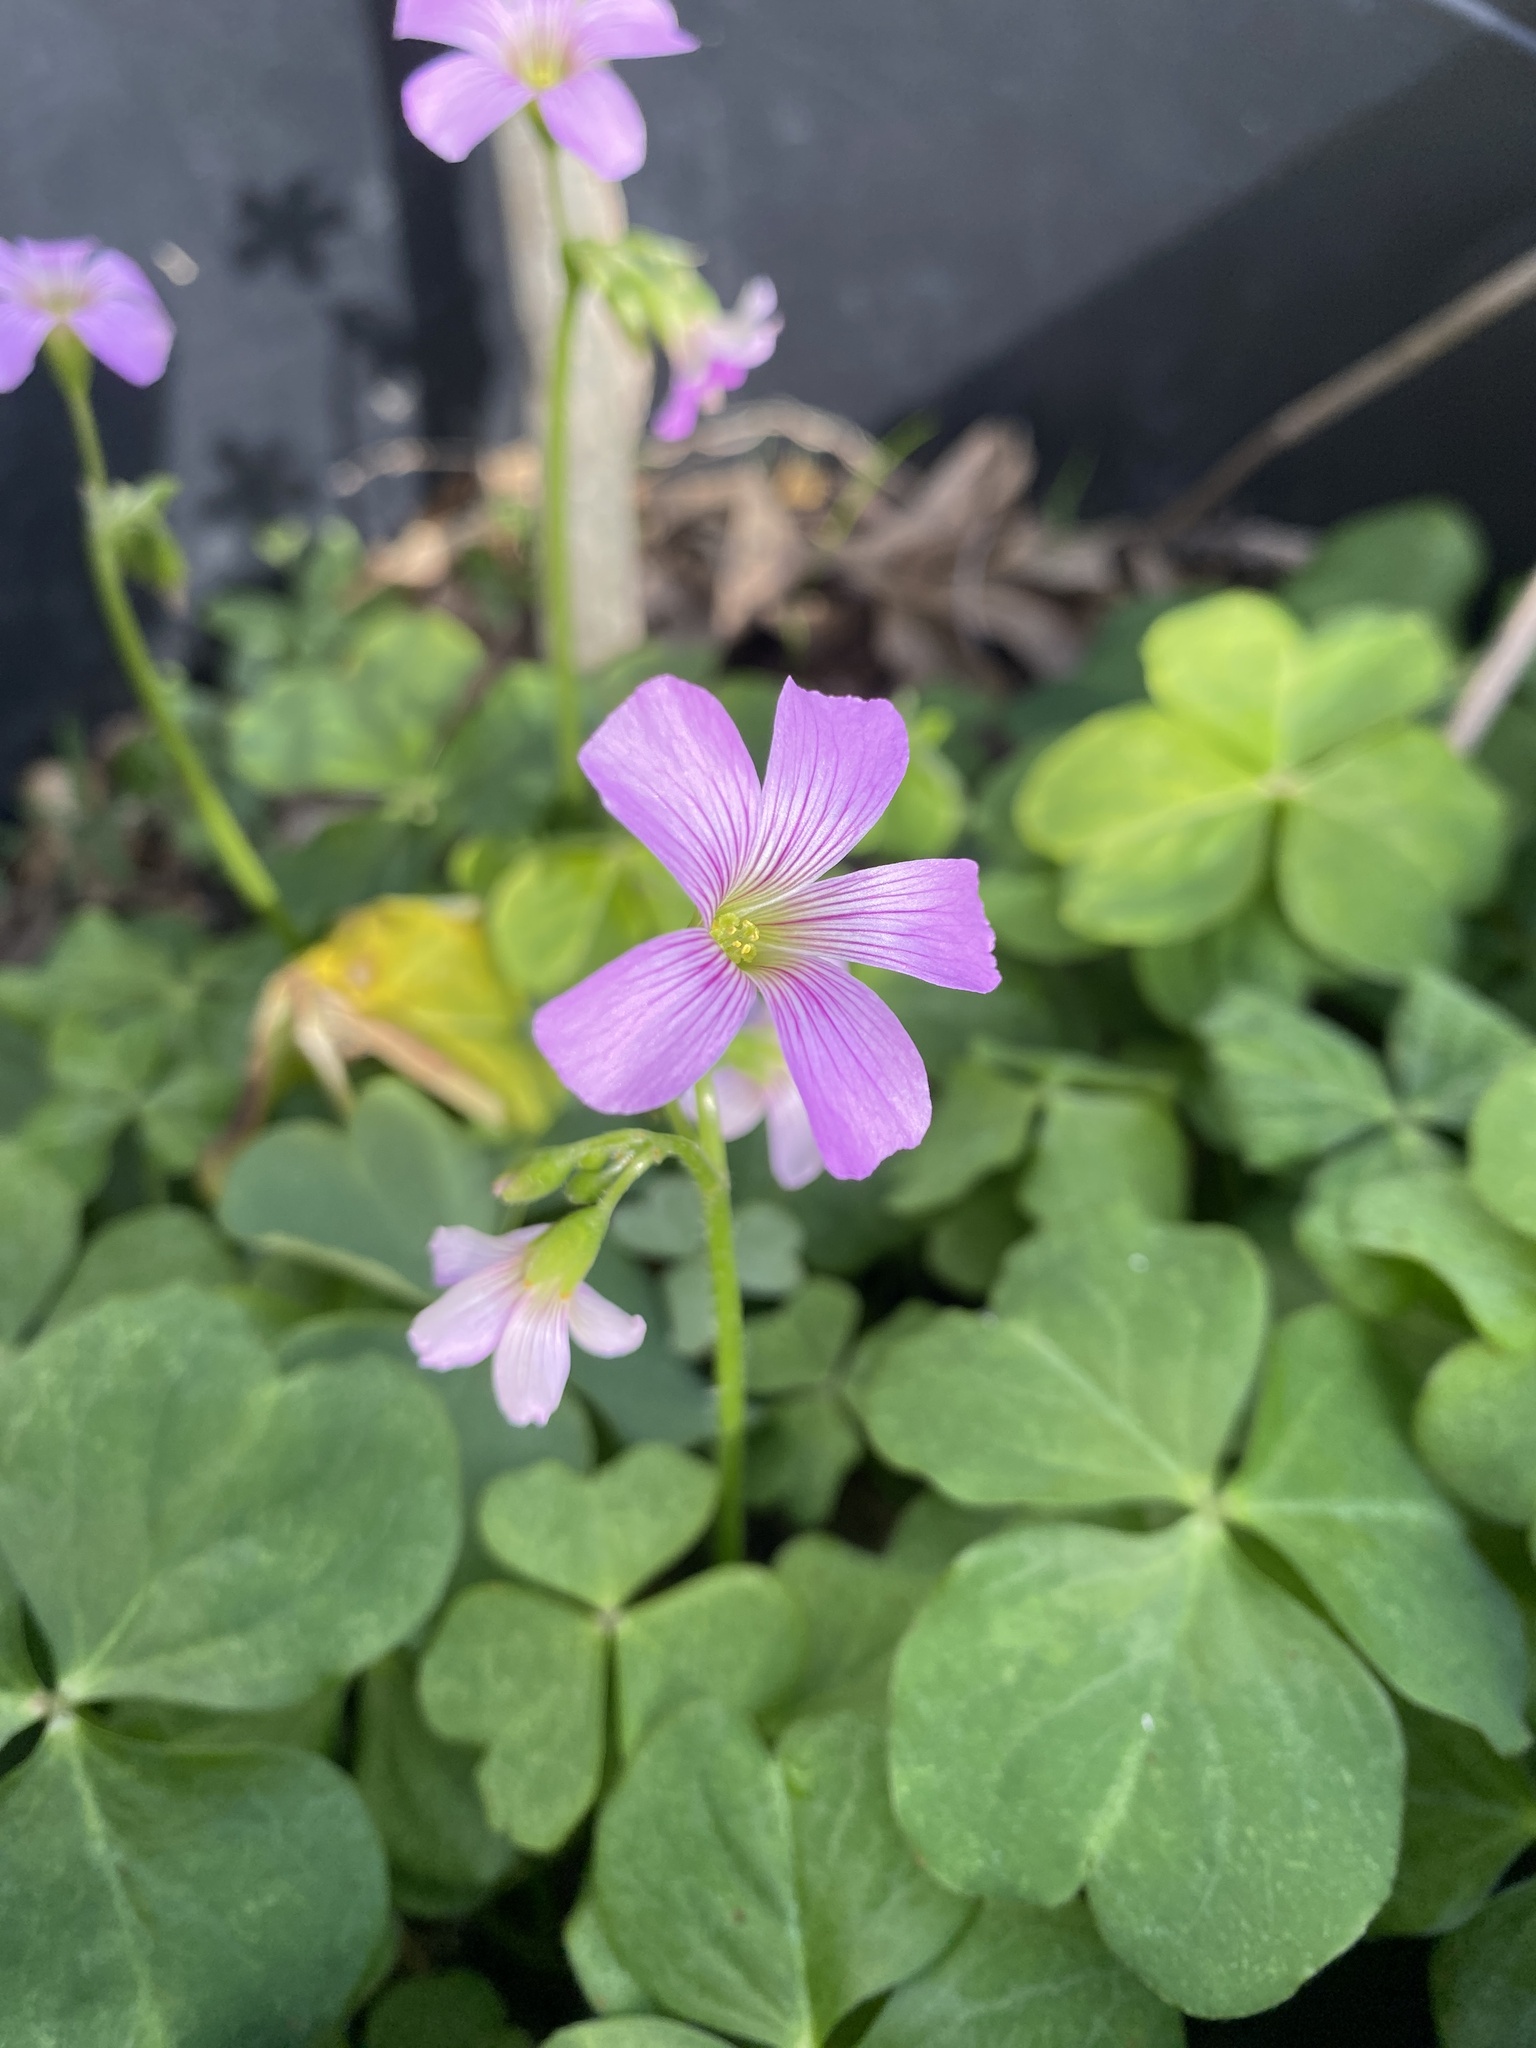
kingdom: Plantae
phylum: Tracheophyta
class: Magnoliopsida
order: Oxalidales
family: Oxalidaceae
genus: Oxalis
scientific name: Oxalis debilis
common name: Large-flowered pink-sorrel
